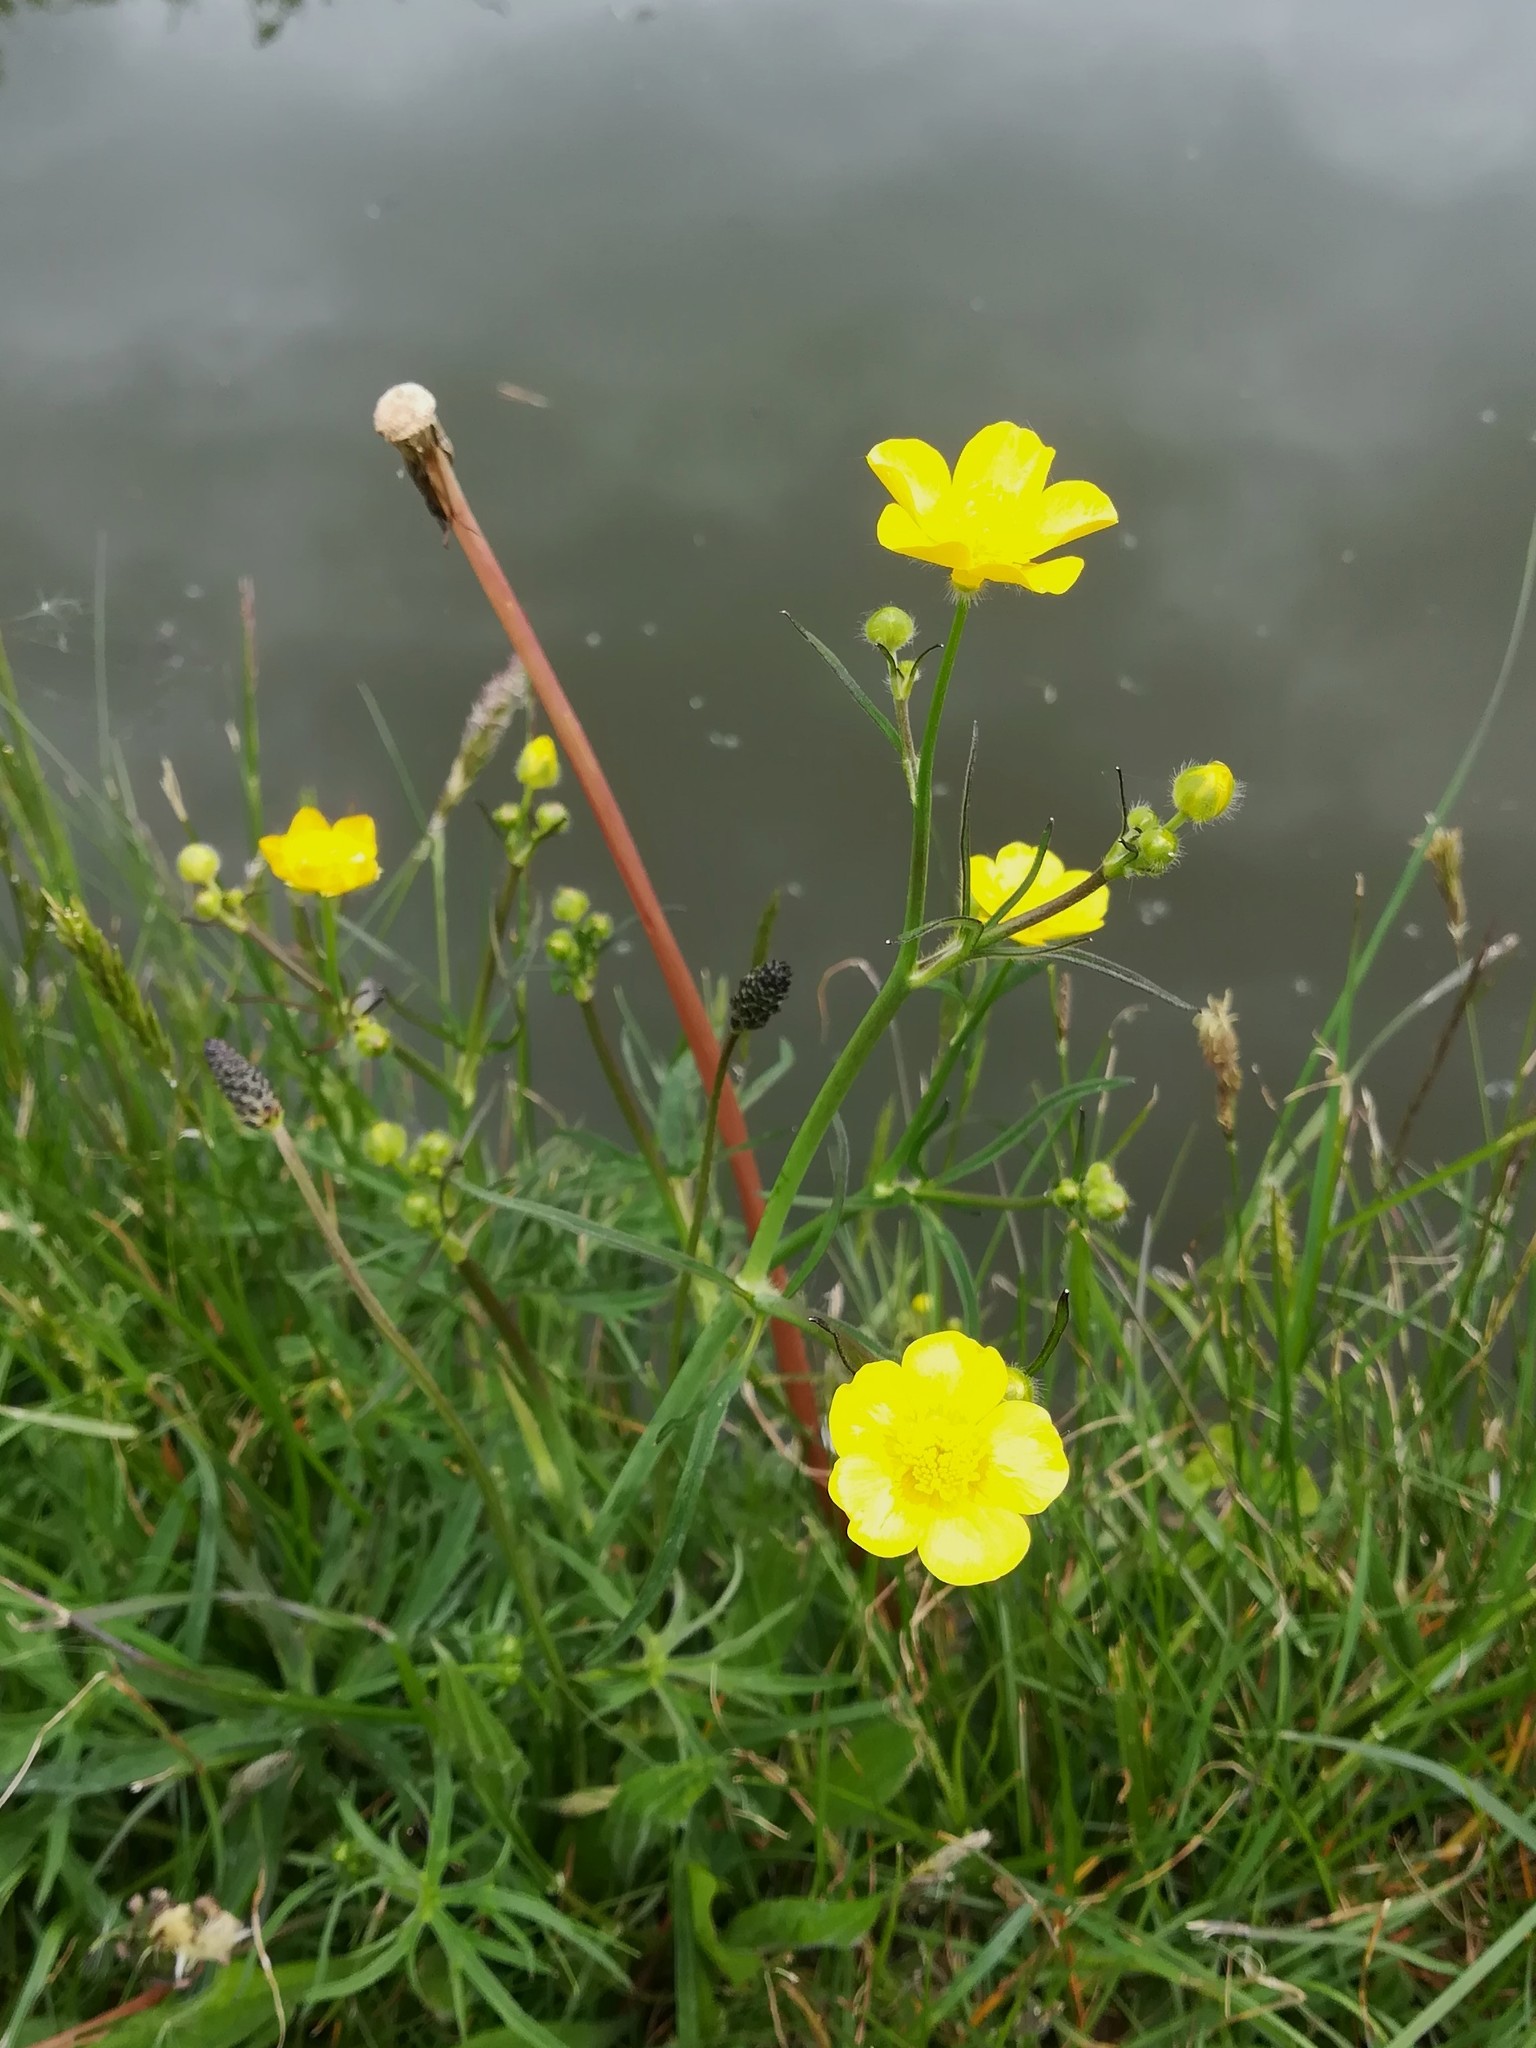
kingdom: Plantae
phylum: Tracheophyta
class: Magnoliopsida
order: Ranunculales
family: Ranunculaceae
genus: Ranunculus
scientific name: Ranunculus acris
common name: Meadow buttercup
